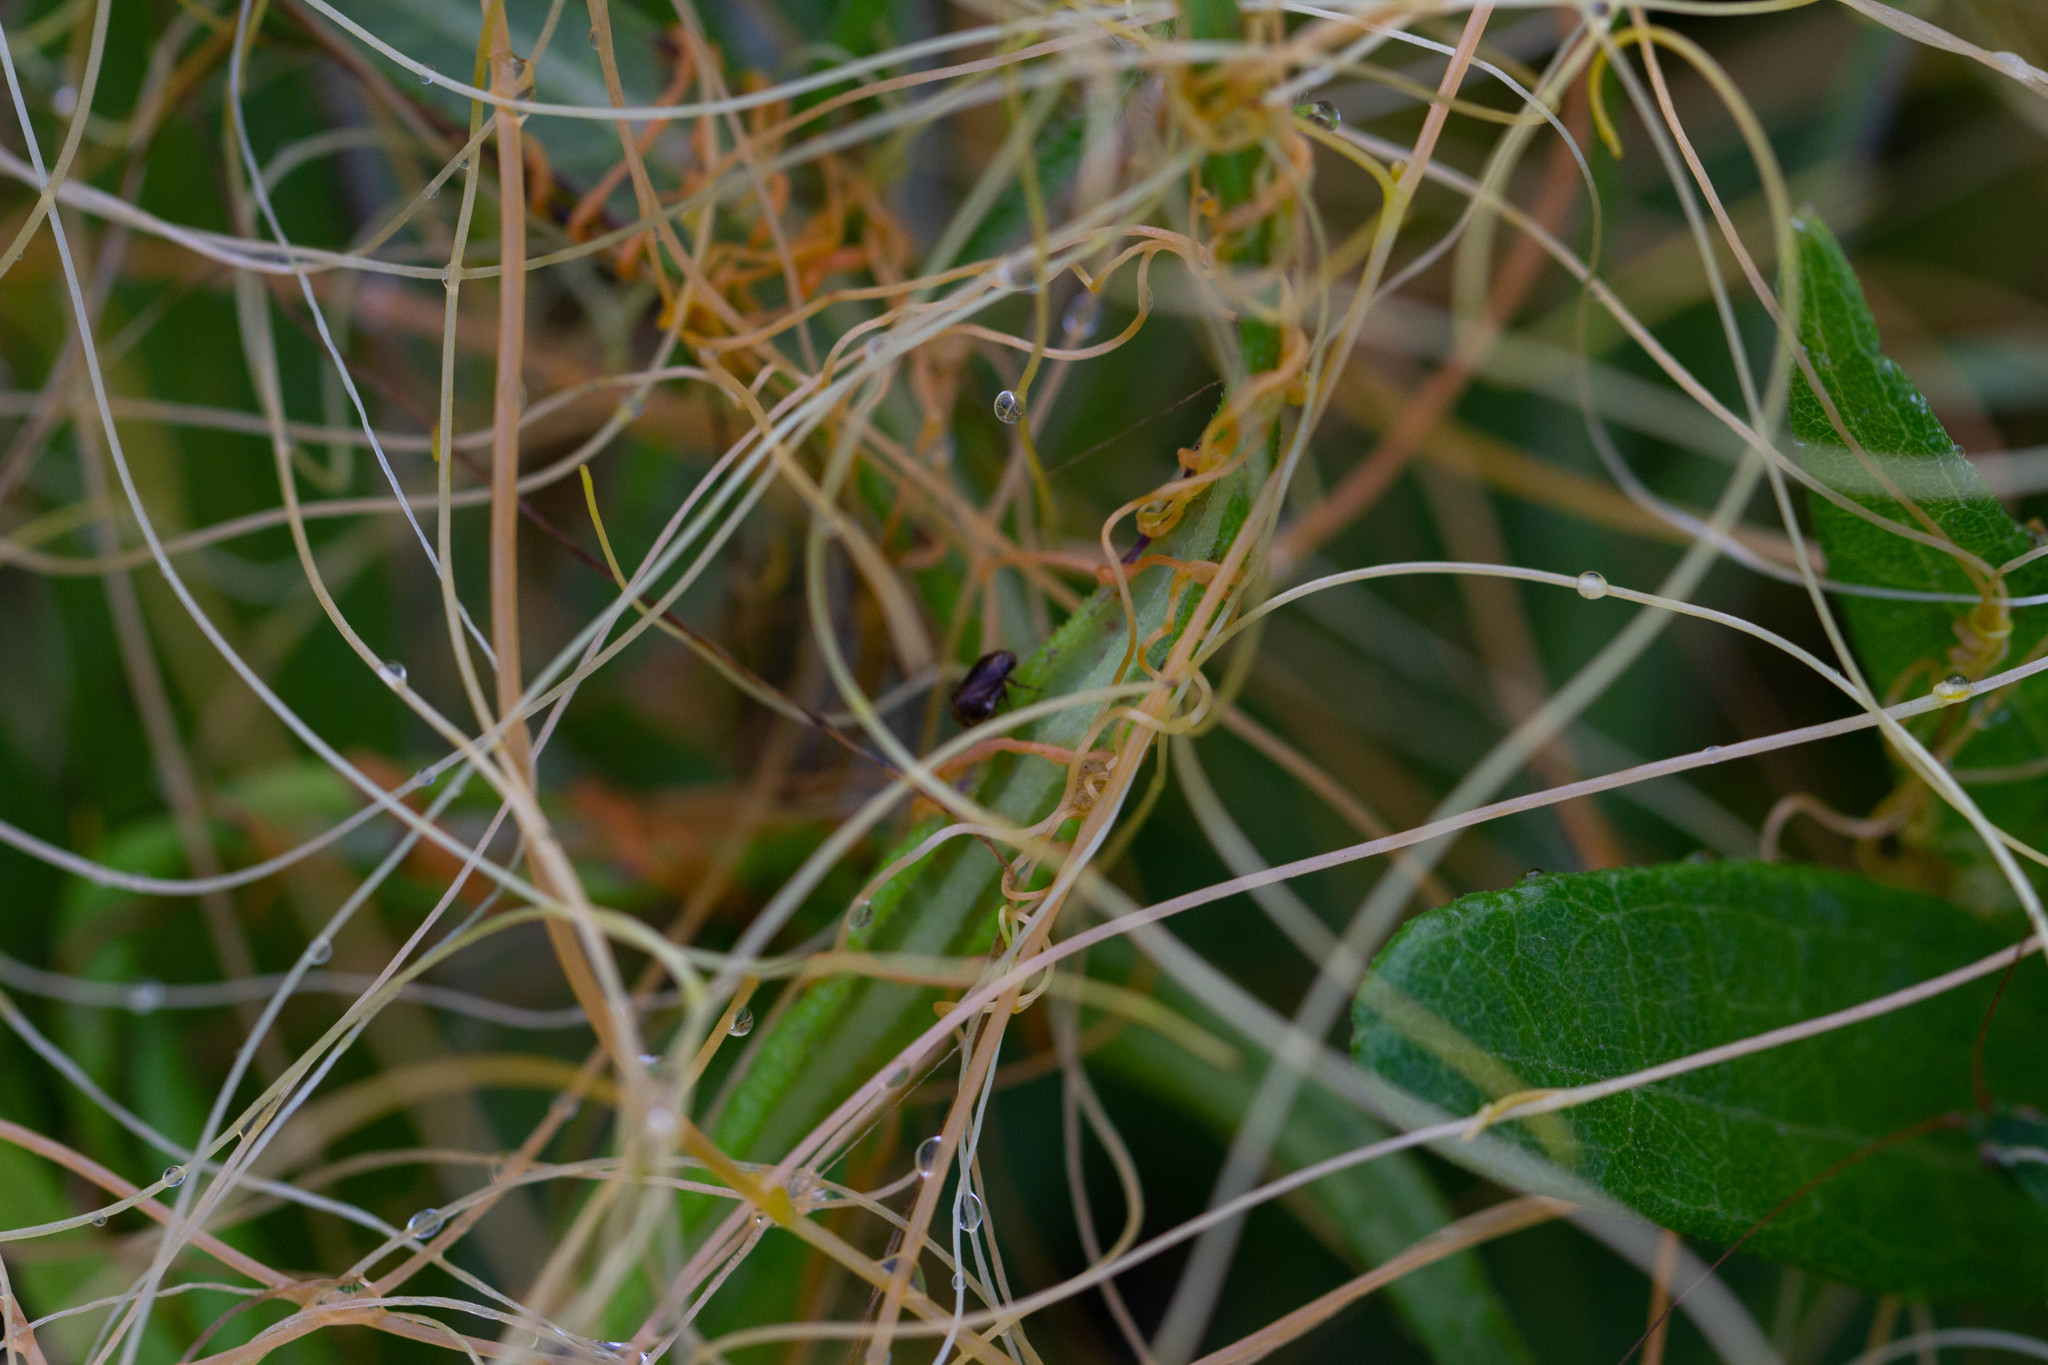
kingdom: Plantae
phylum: Tracheophyta
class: Magnoliopsida
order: Solanales
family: Convolvulaceae
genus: Cuscuta
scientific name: Cuscuta indecora
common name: Large-seed dodder
